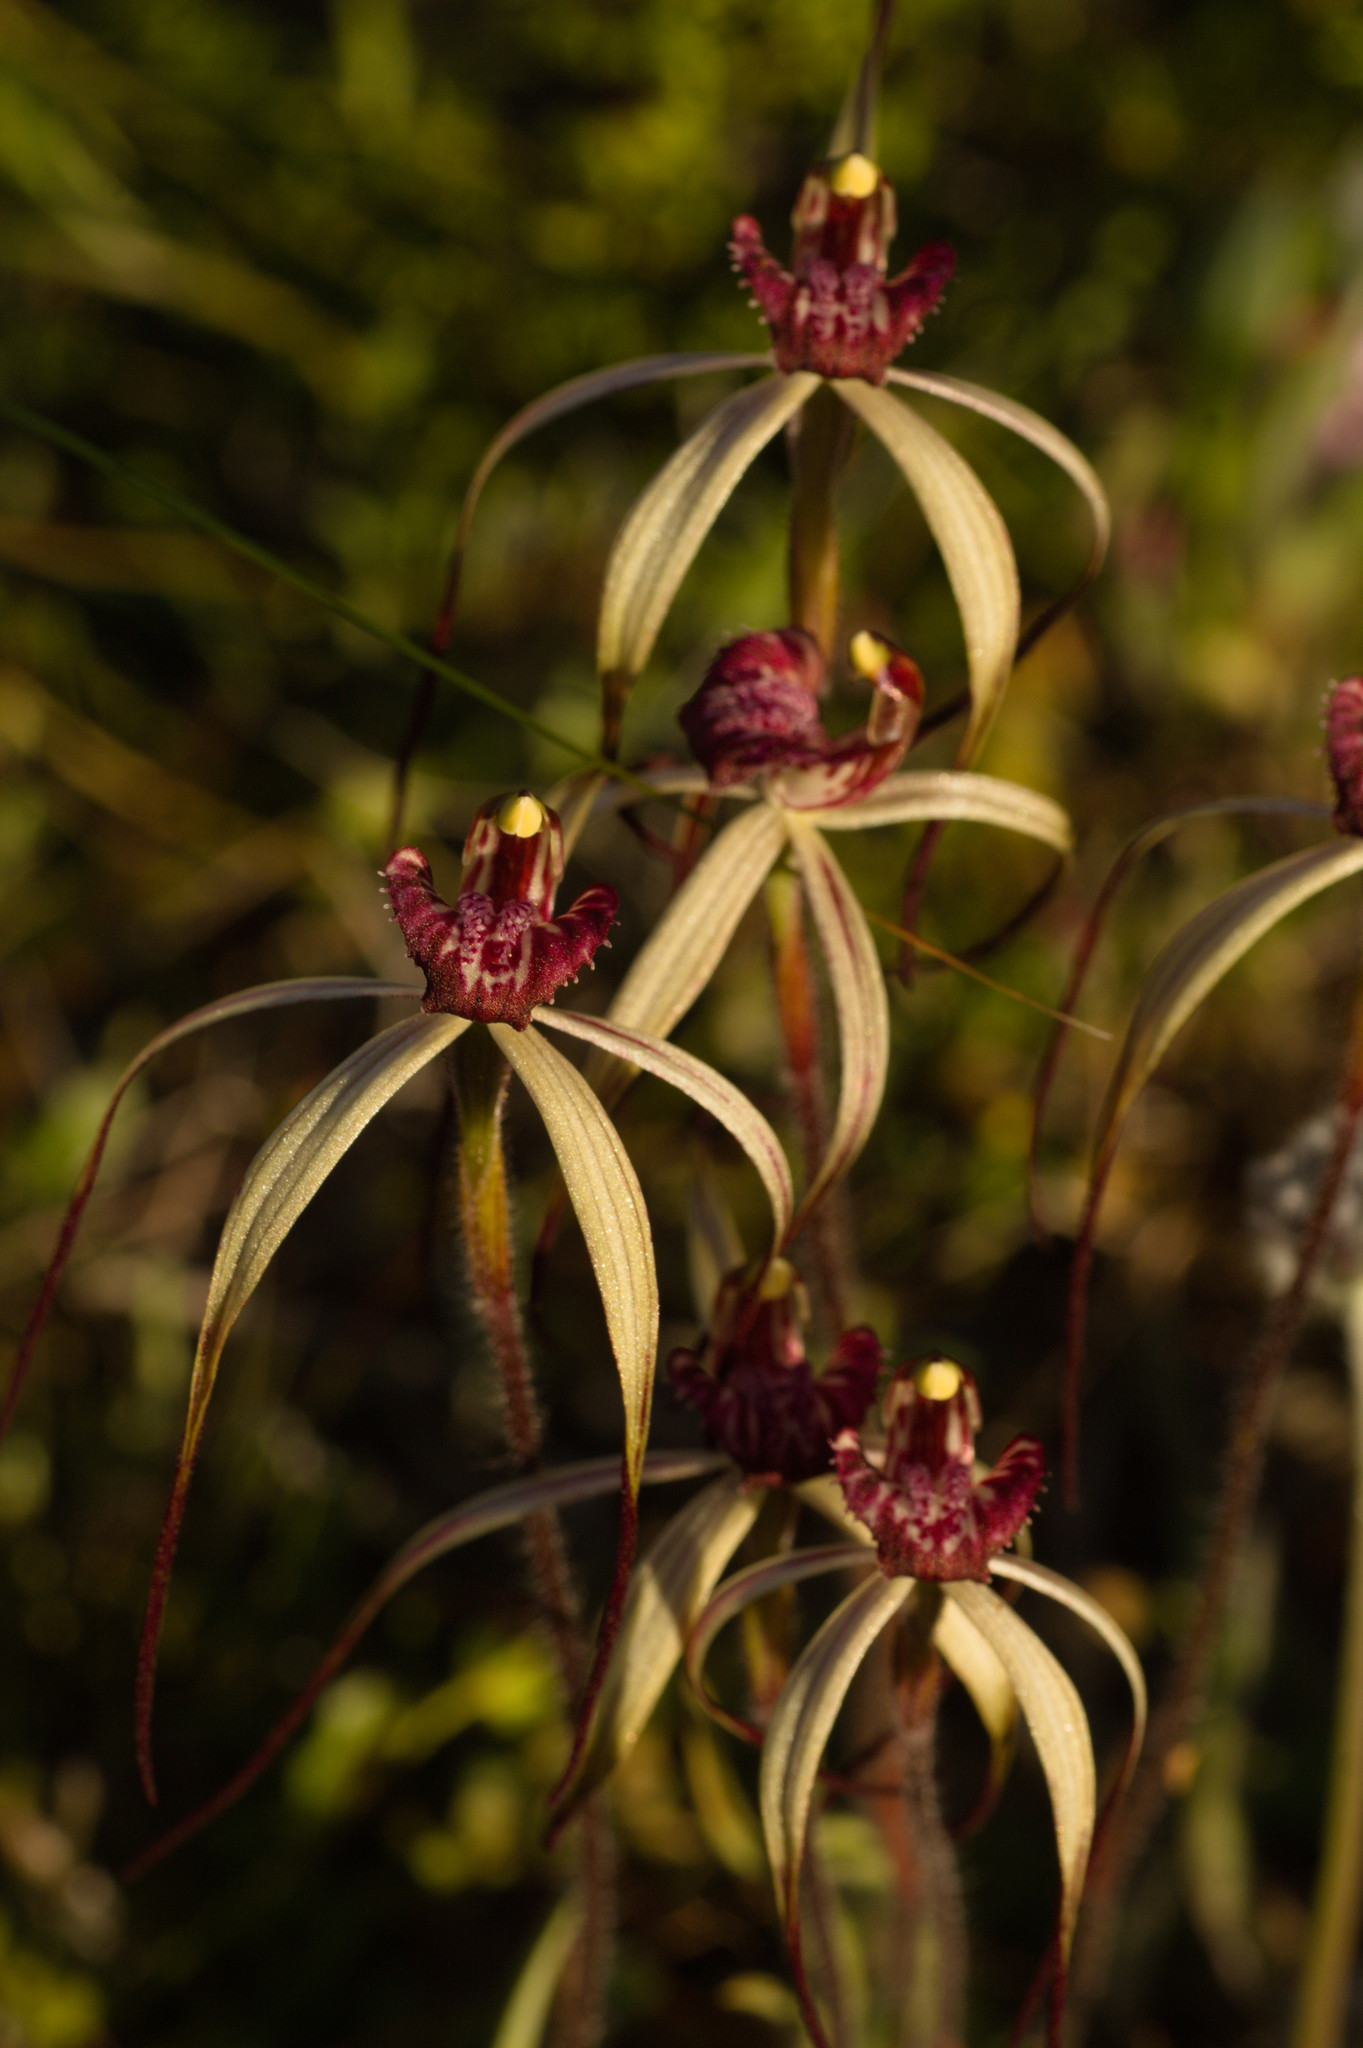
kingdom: Plantae
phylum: Tracheophyta
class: Liliopsida
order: Asparagales
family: Orchidaceae
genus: Caladenia
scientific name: Caladenia radialis
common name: Drooping spider orchid
